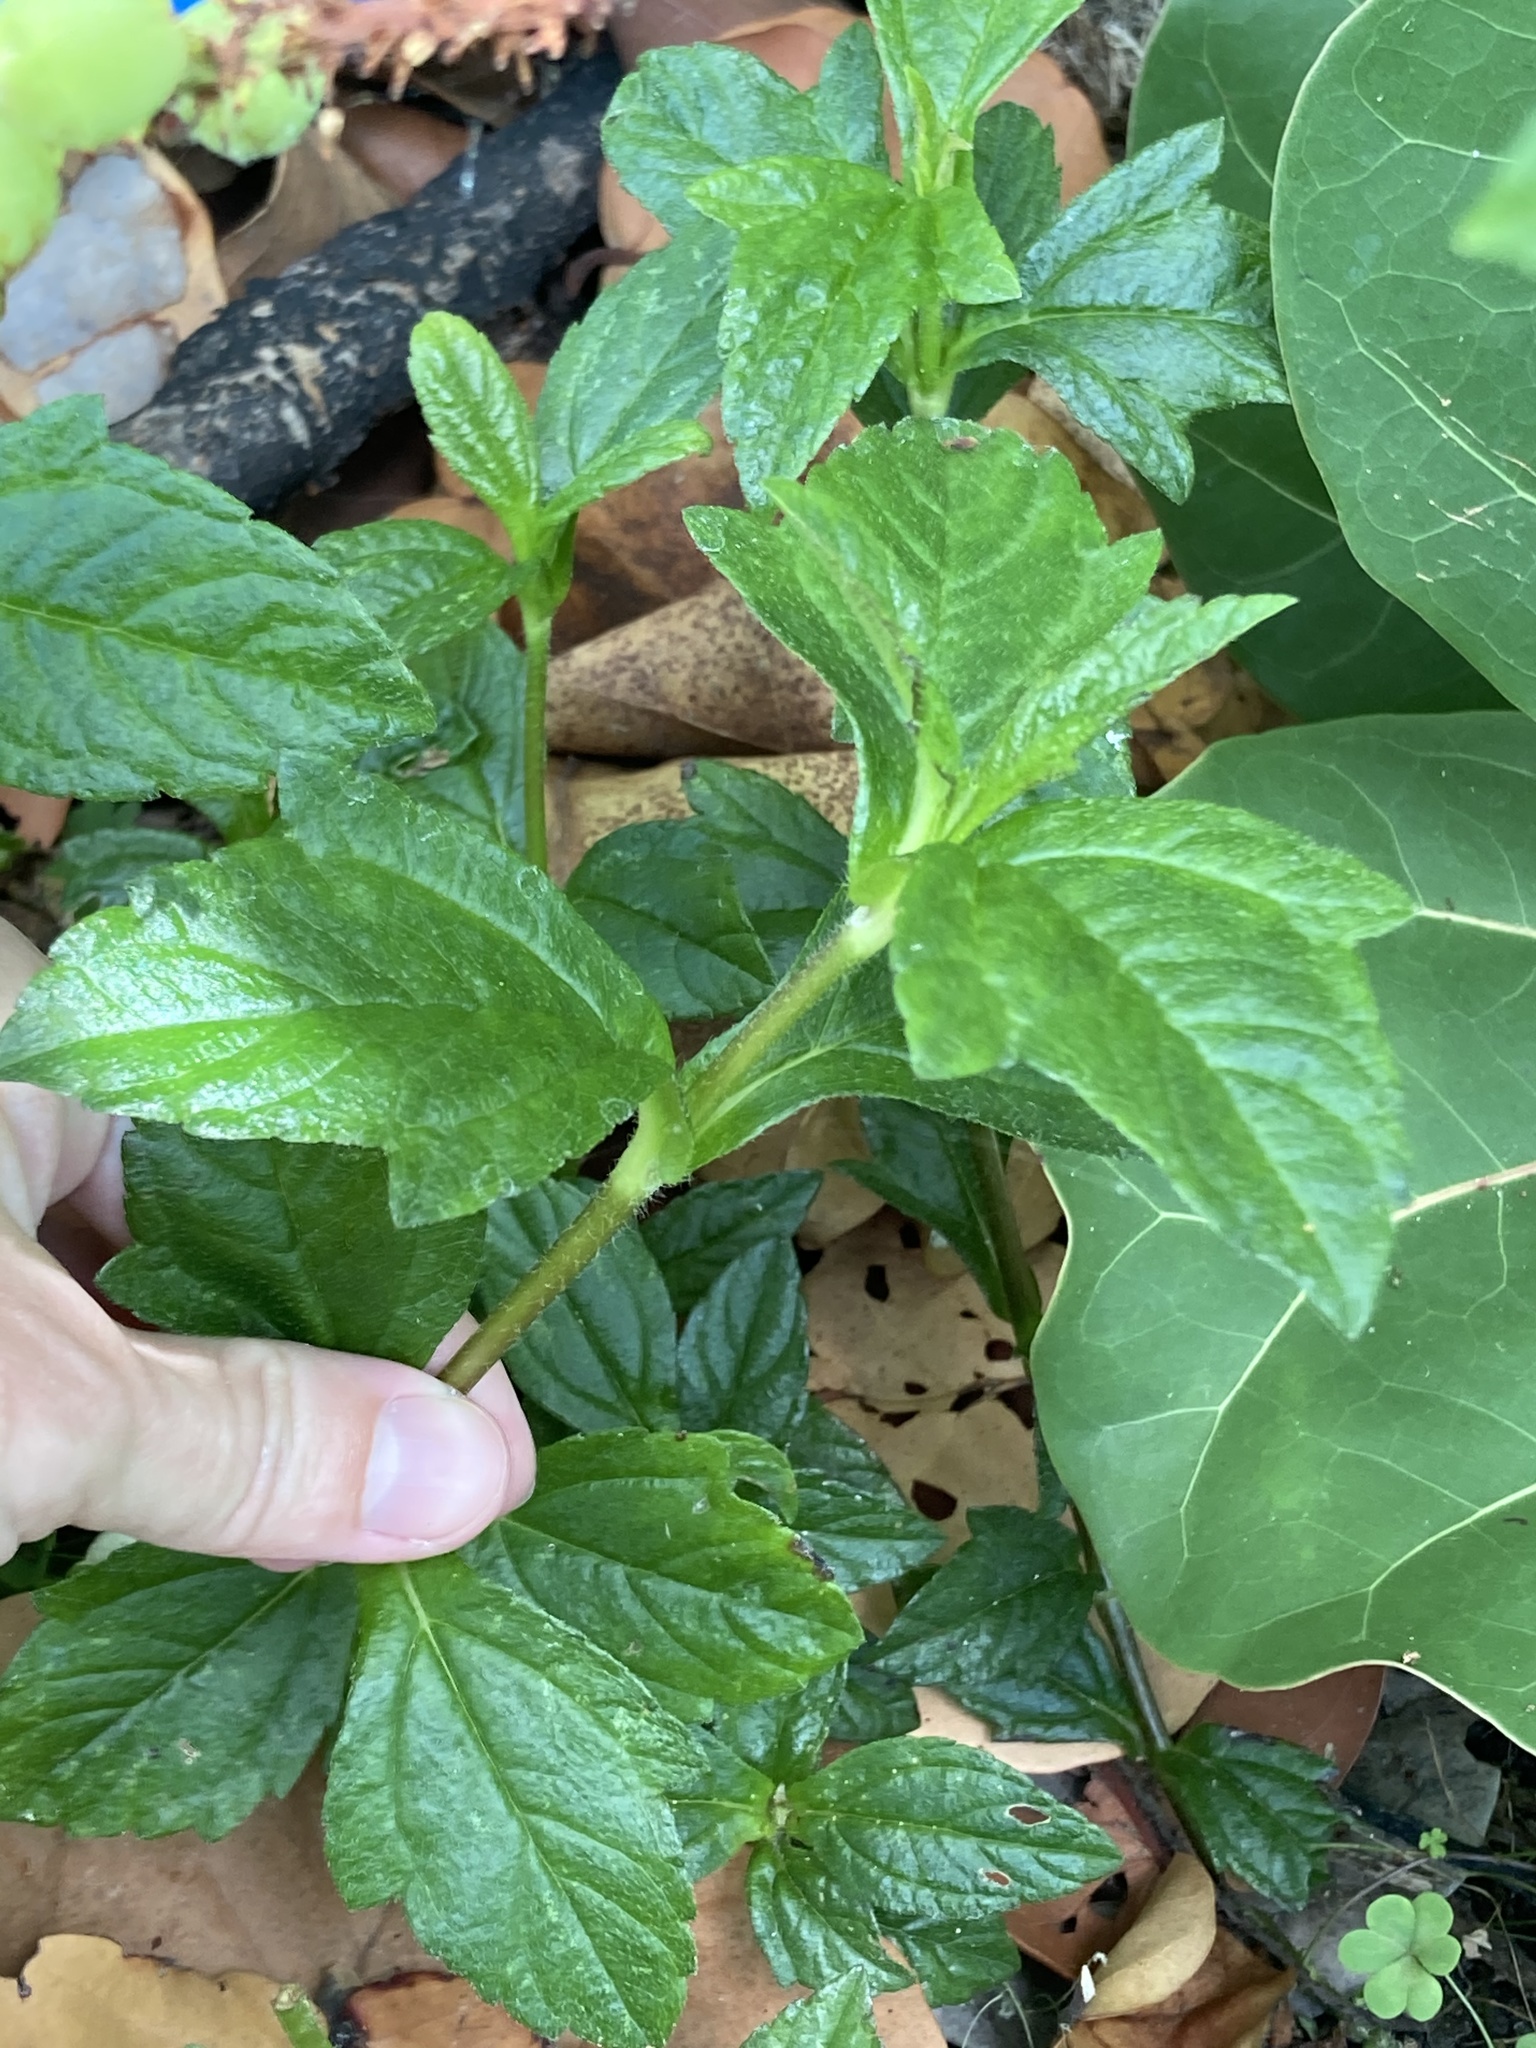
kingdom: Plantae
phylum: Tracheophyta
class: Magnoliopsida
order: Asterales
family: Asteraceae
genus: Sphagneticola
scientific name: Sphagneticola trilobata
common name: Bay biscayne creeping-oxeye
